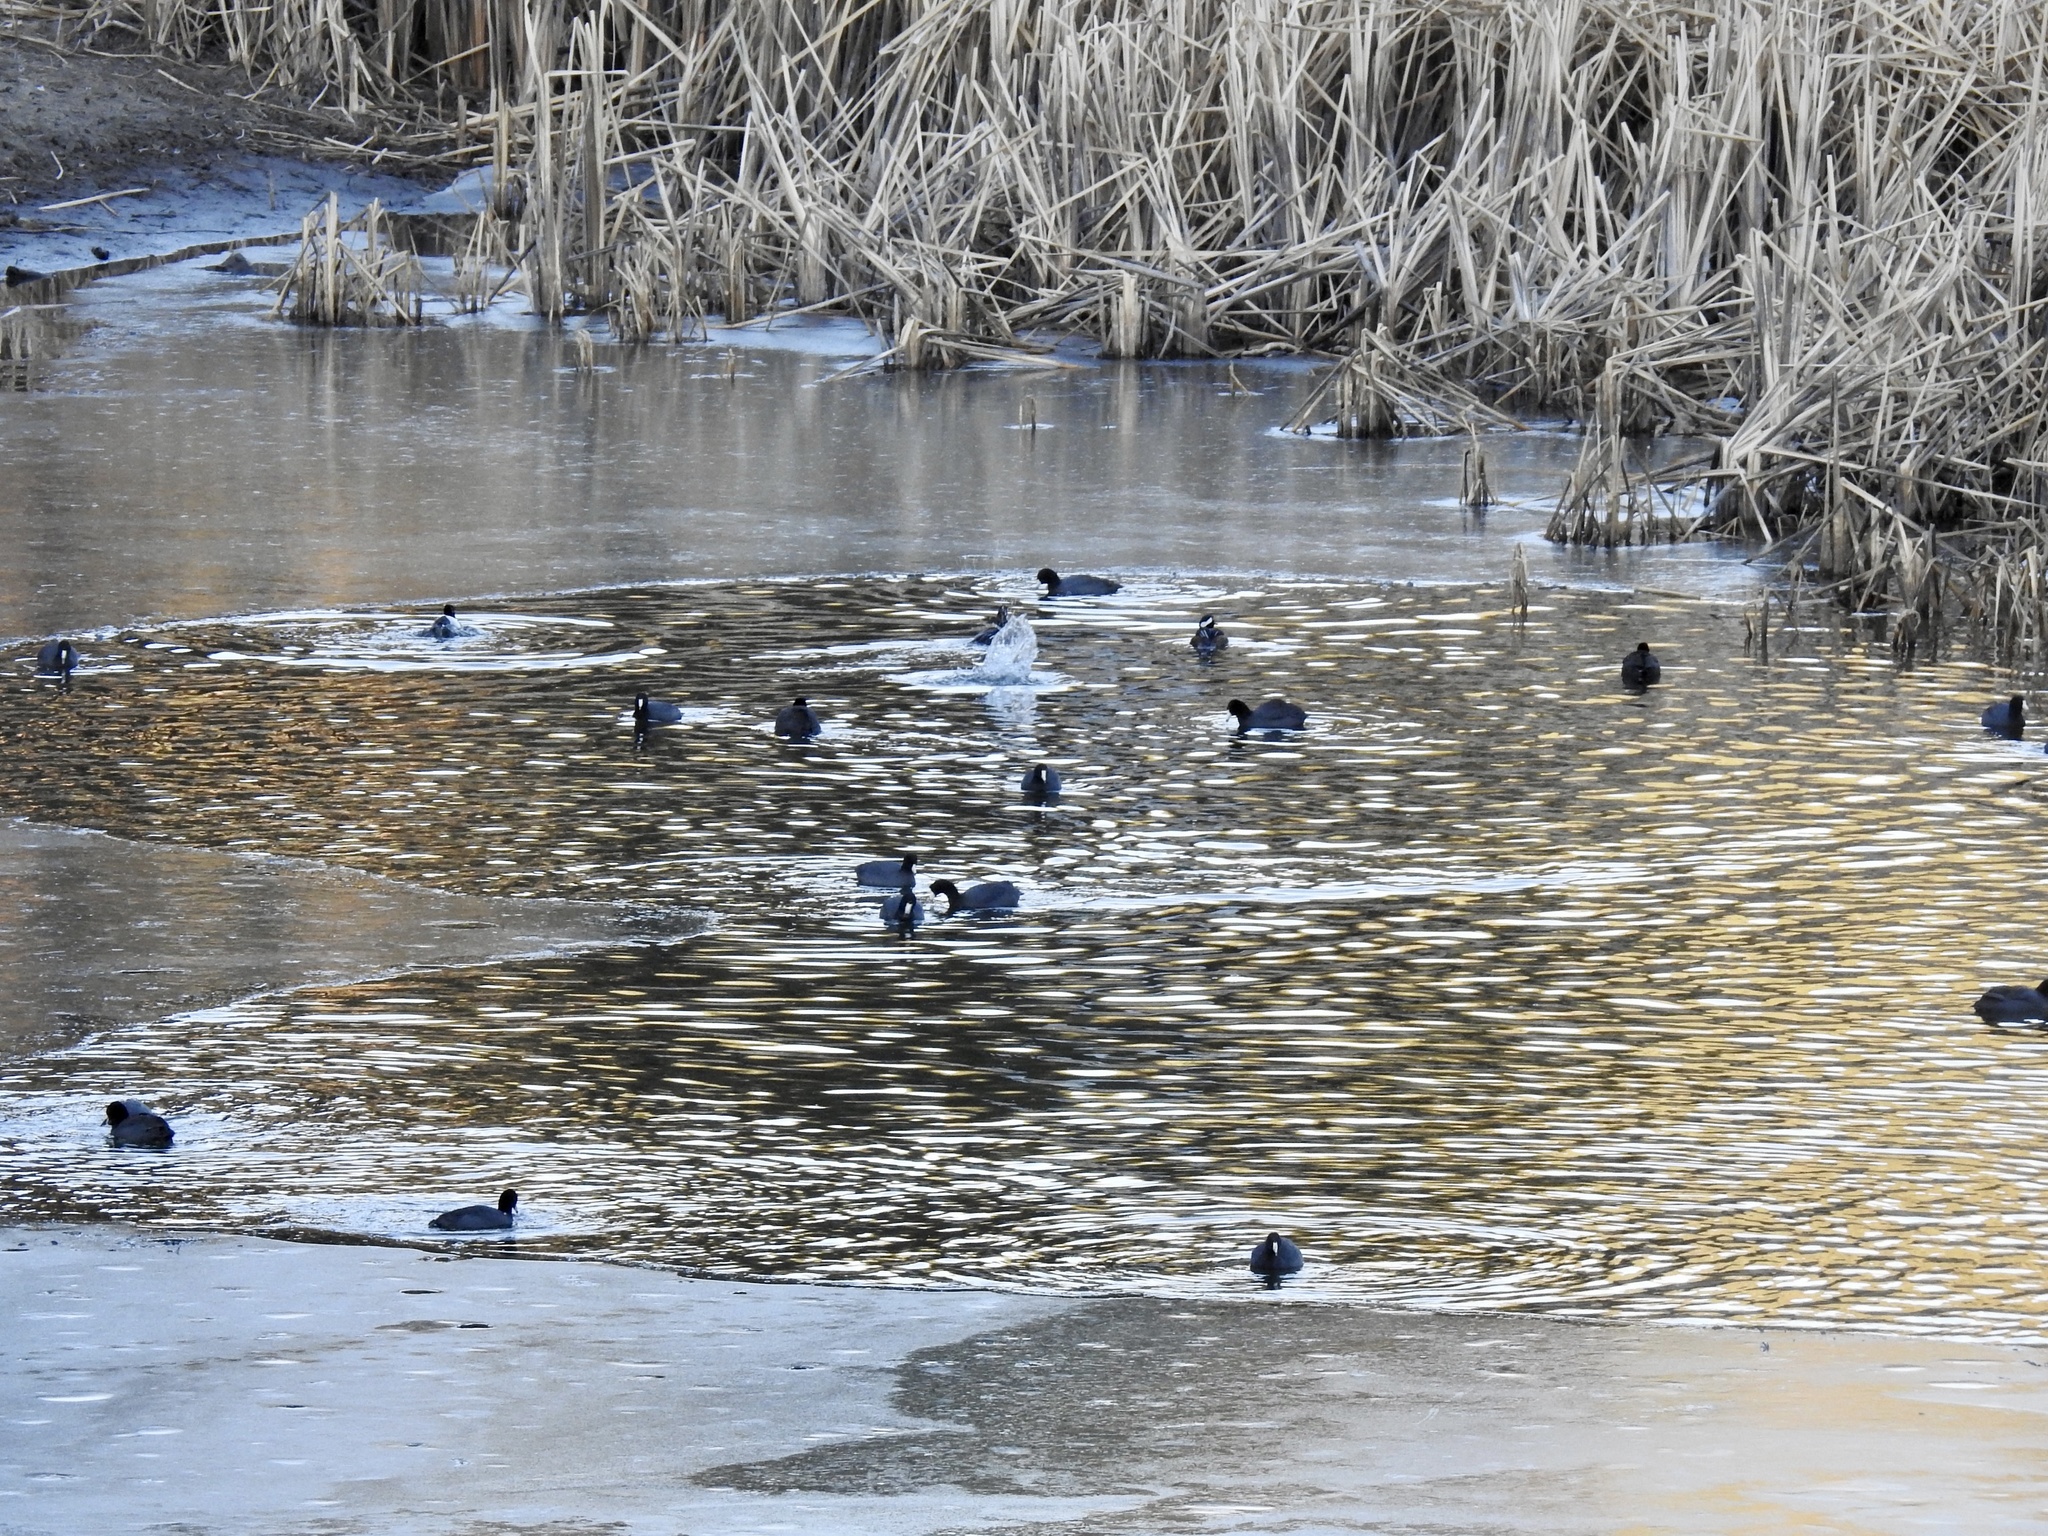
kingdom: Animalia
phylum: Chordata
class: Aves
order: Gruiformes
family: Rallidae
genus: Fulica
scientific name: Fulica americana
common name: American coot
